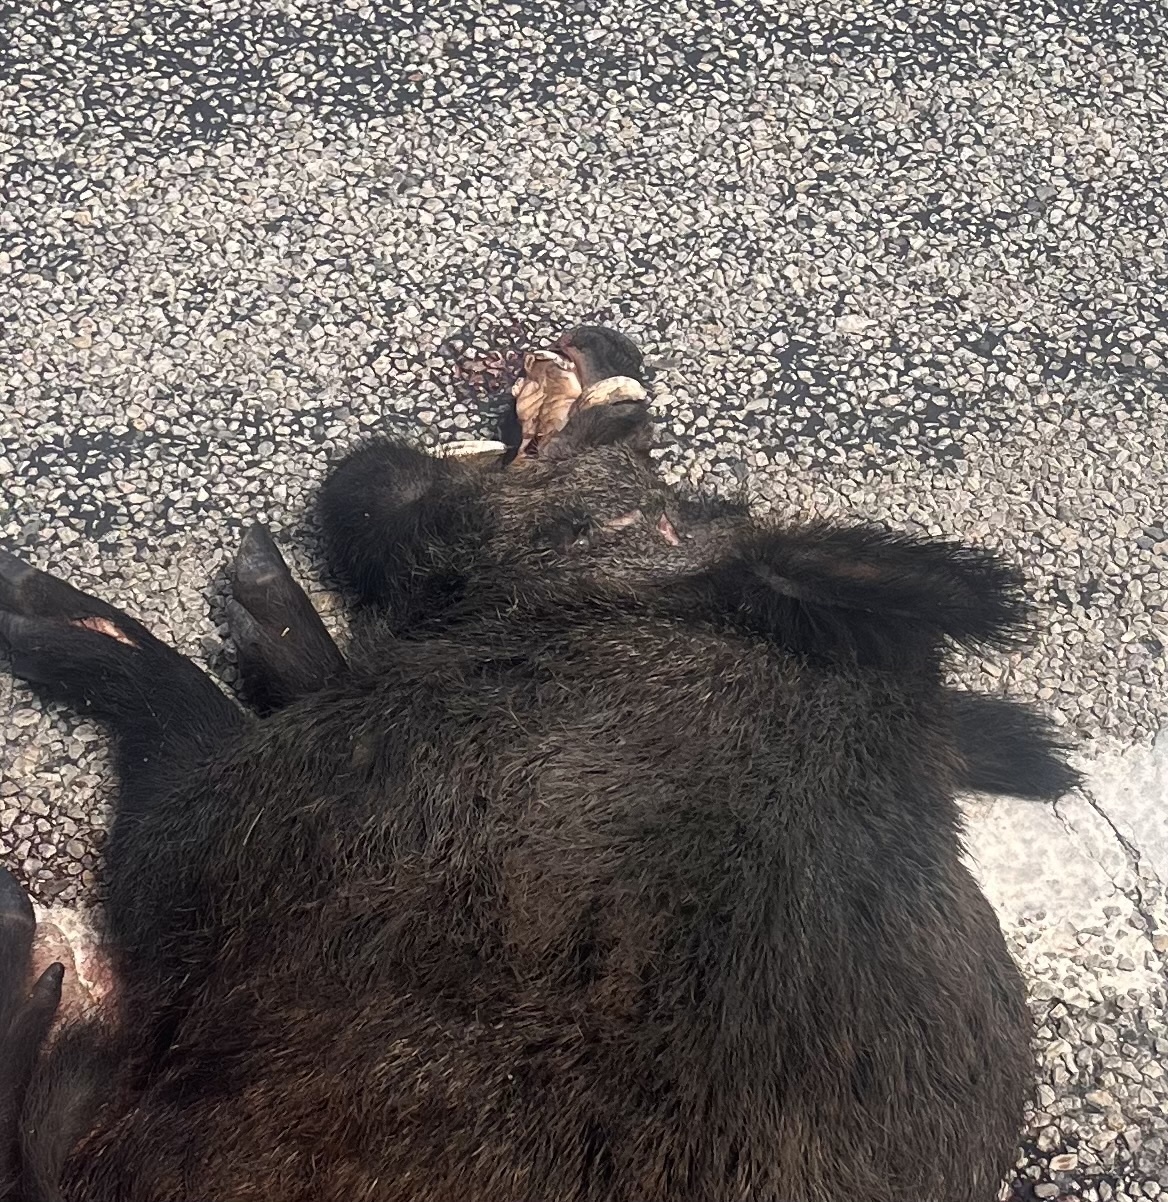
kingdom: Animalia
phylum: Chordata
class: Mammalia
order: Artiodactyla
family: Suidae
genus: Sus
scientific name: Sus scrofa
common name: Wild boar
